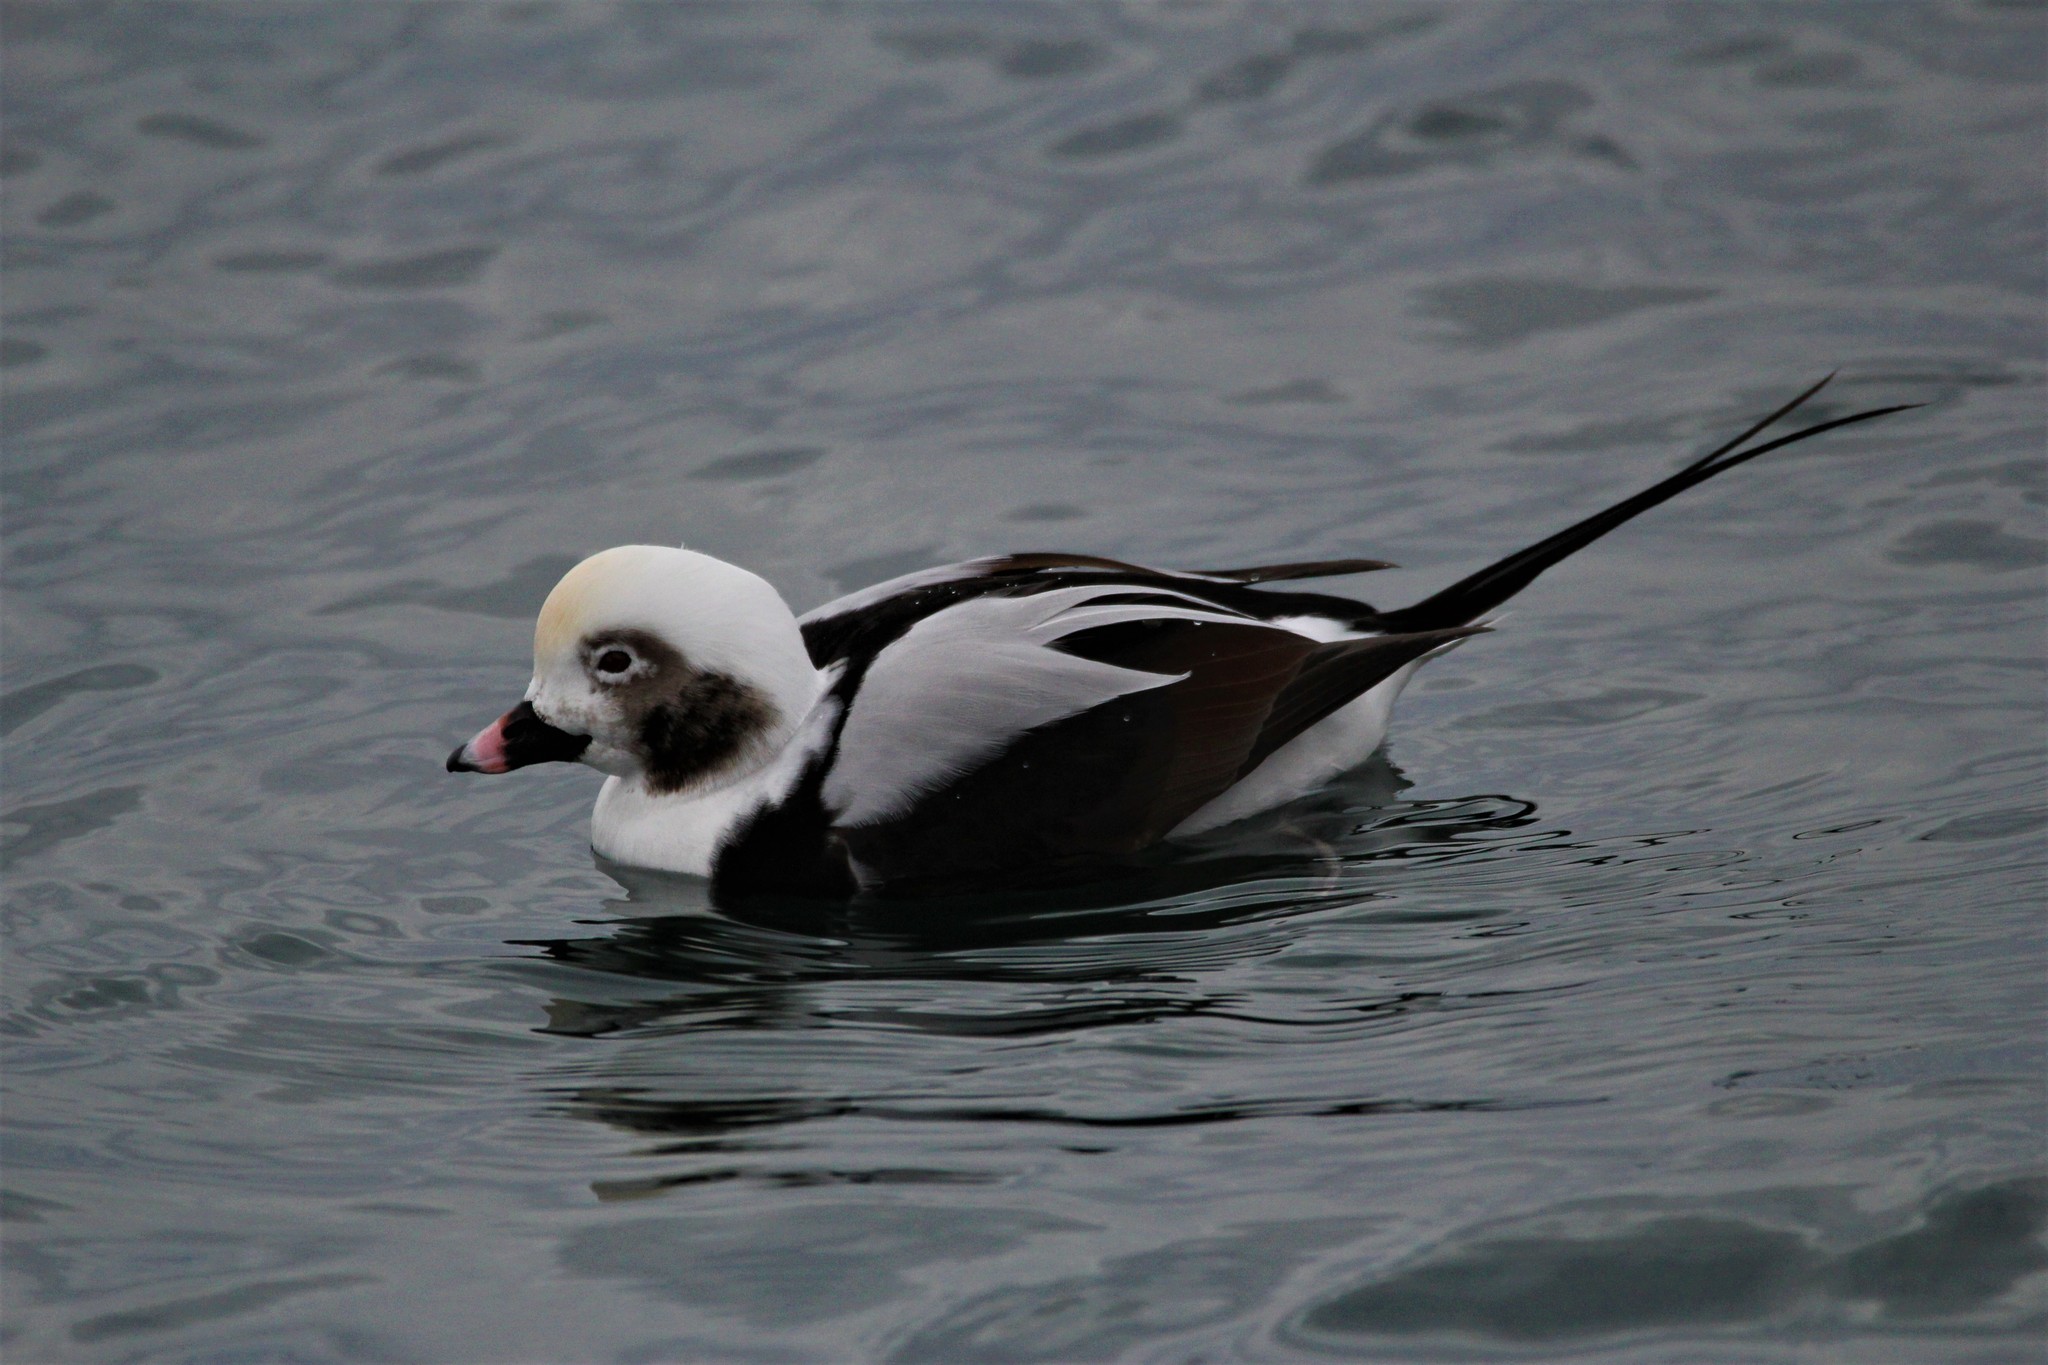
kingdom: Animalia
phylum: Chordata
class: Aves
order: Anseriformes
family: Anatidae
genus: Clangula
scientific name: Clangula hyemalis
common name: Long-tailed duck
